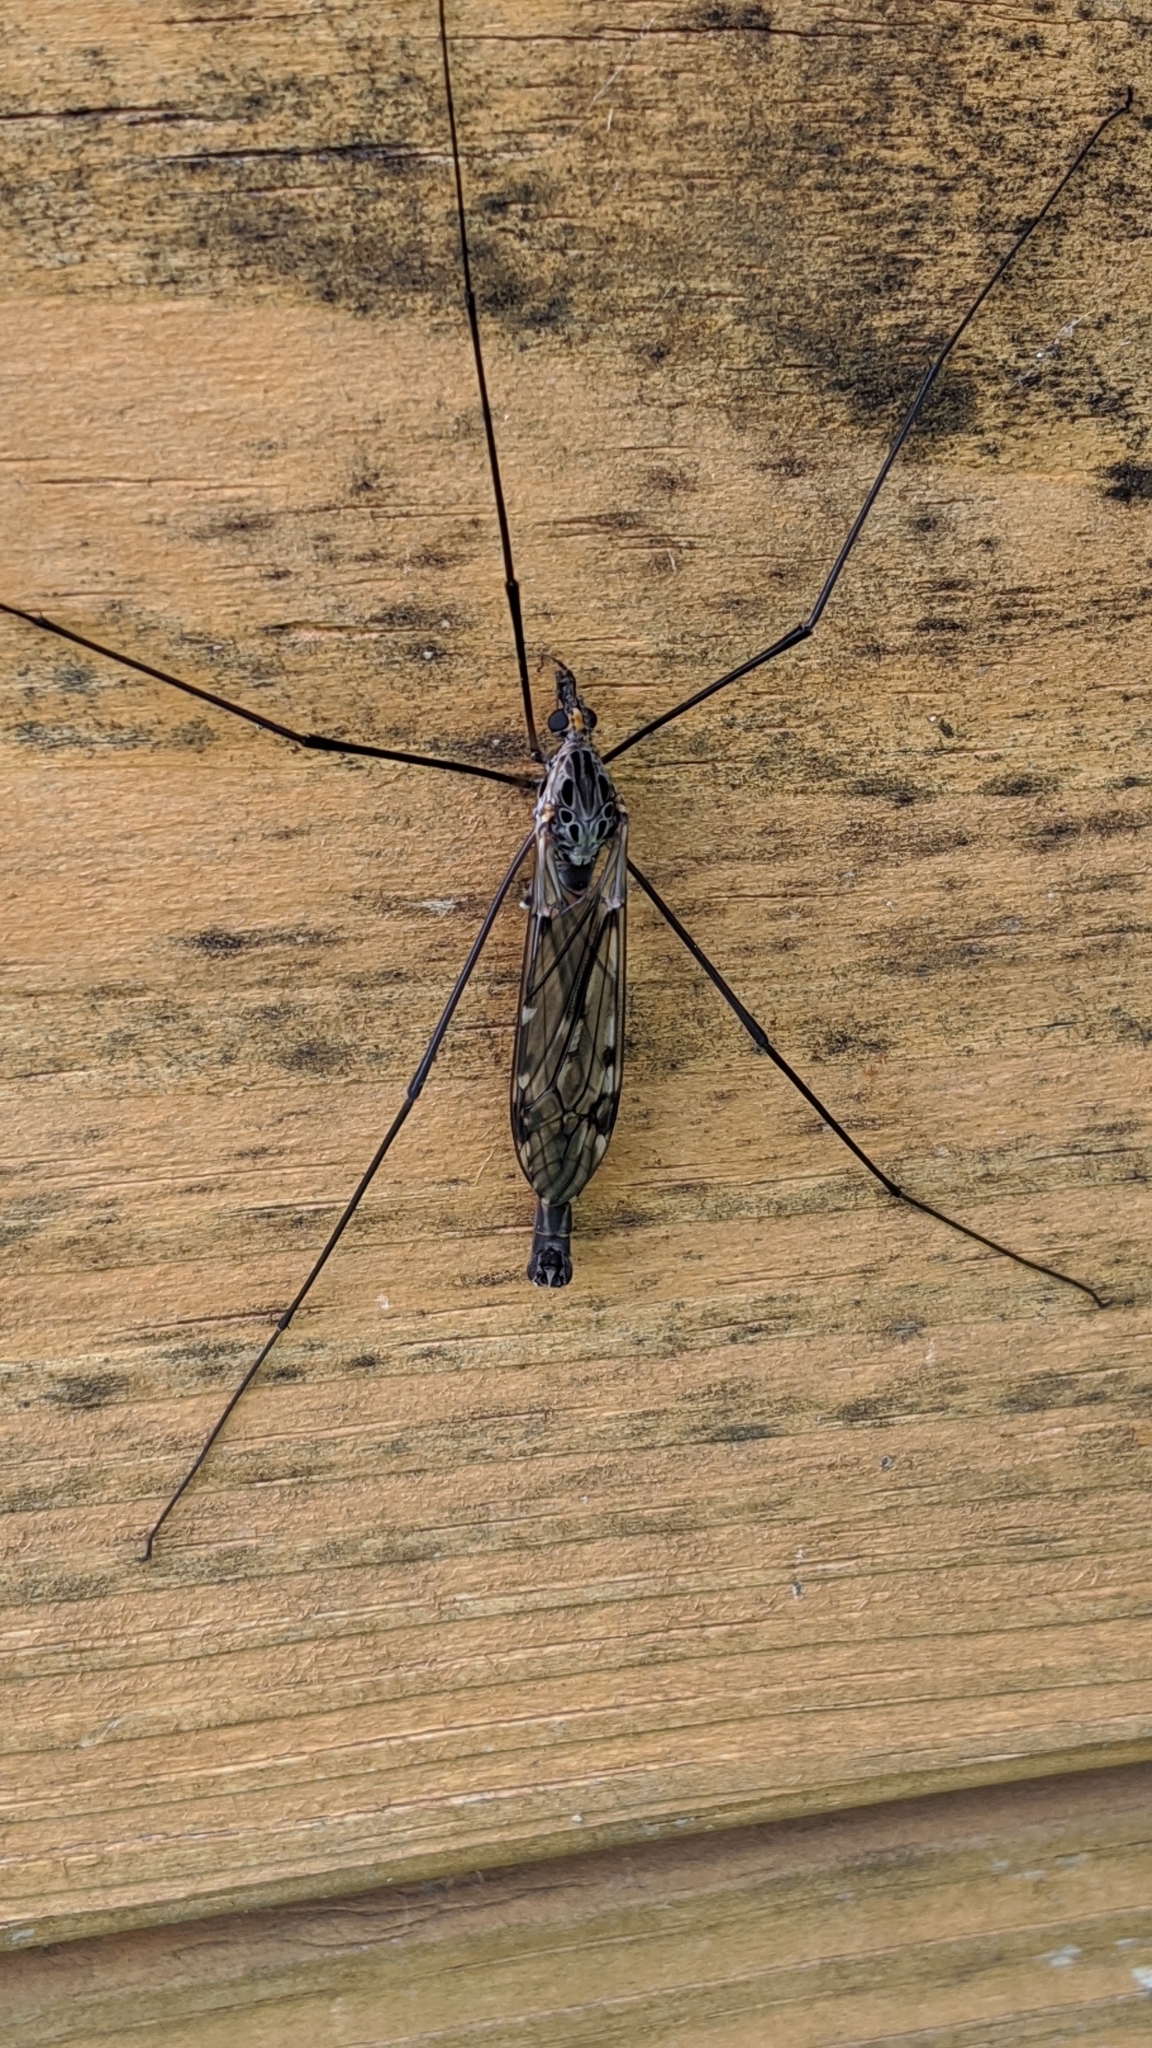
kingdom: Animalia
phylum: Arthropoda
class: Insecta
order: Diptera
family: Tipulidae
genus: Tipula
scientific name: Tipula metacomet
